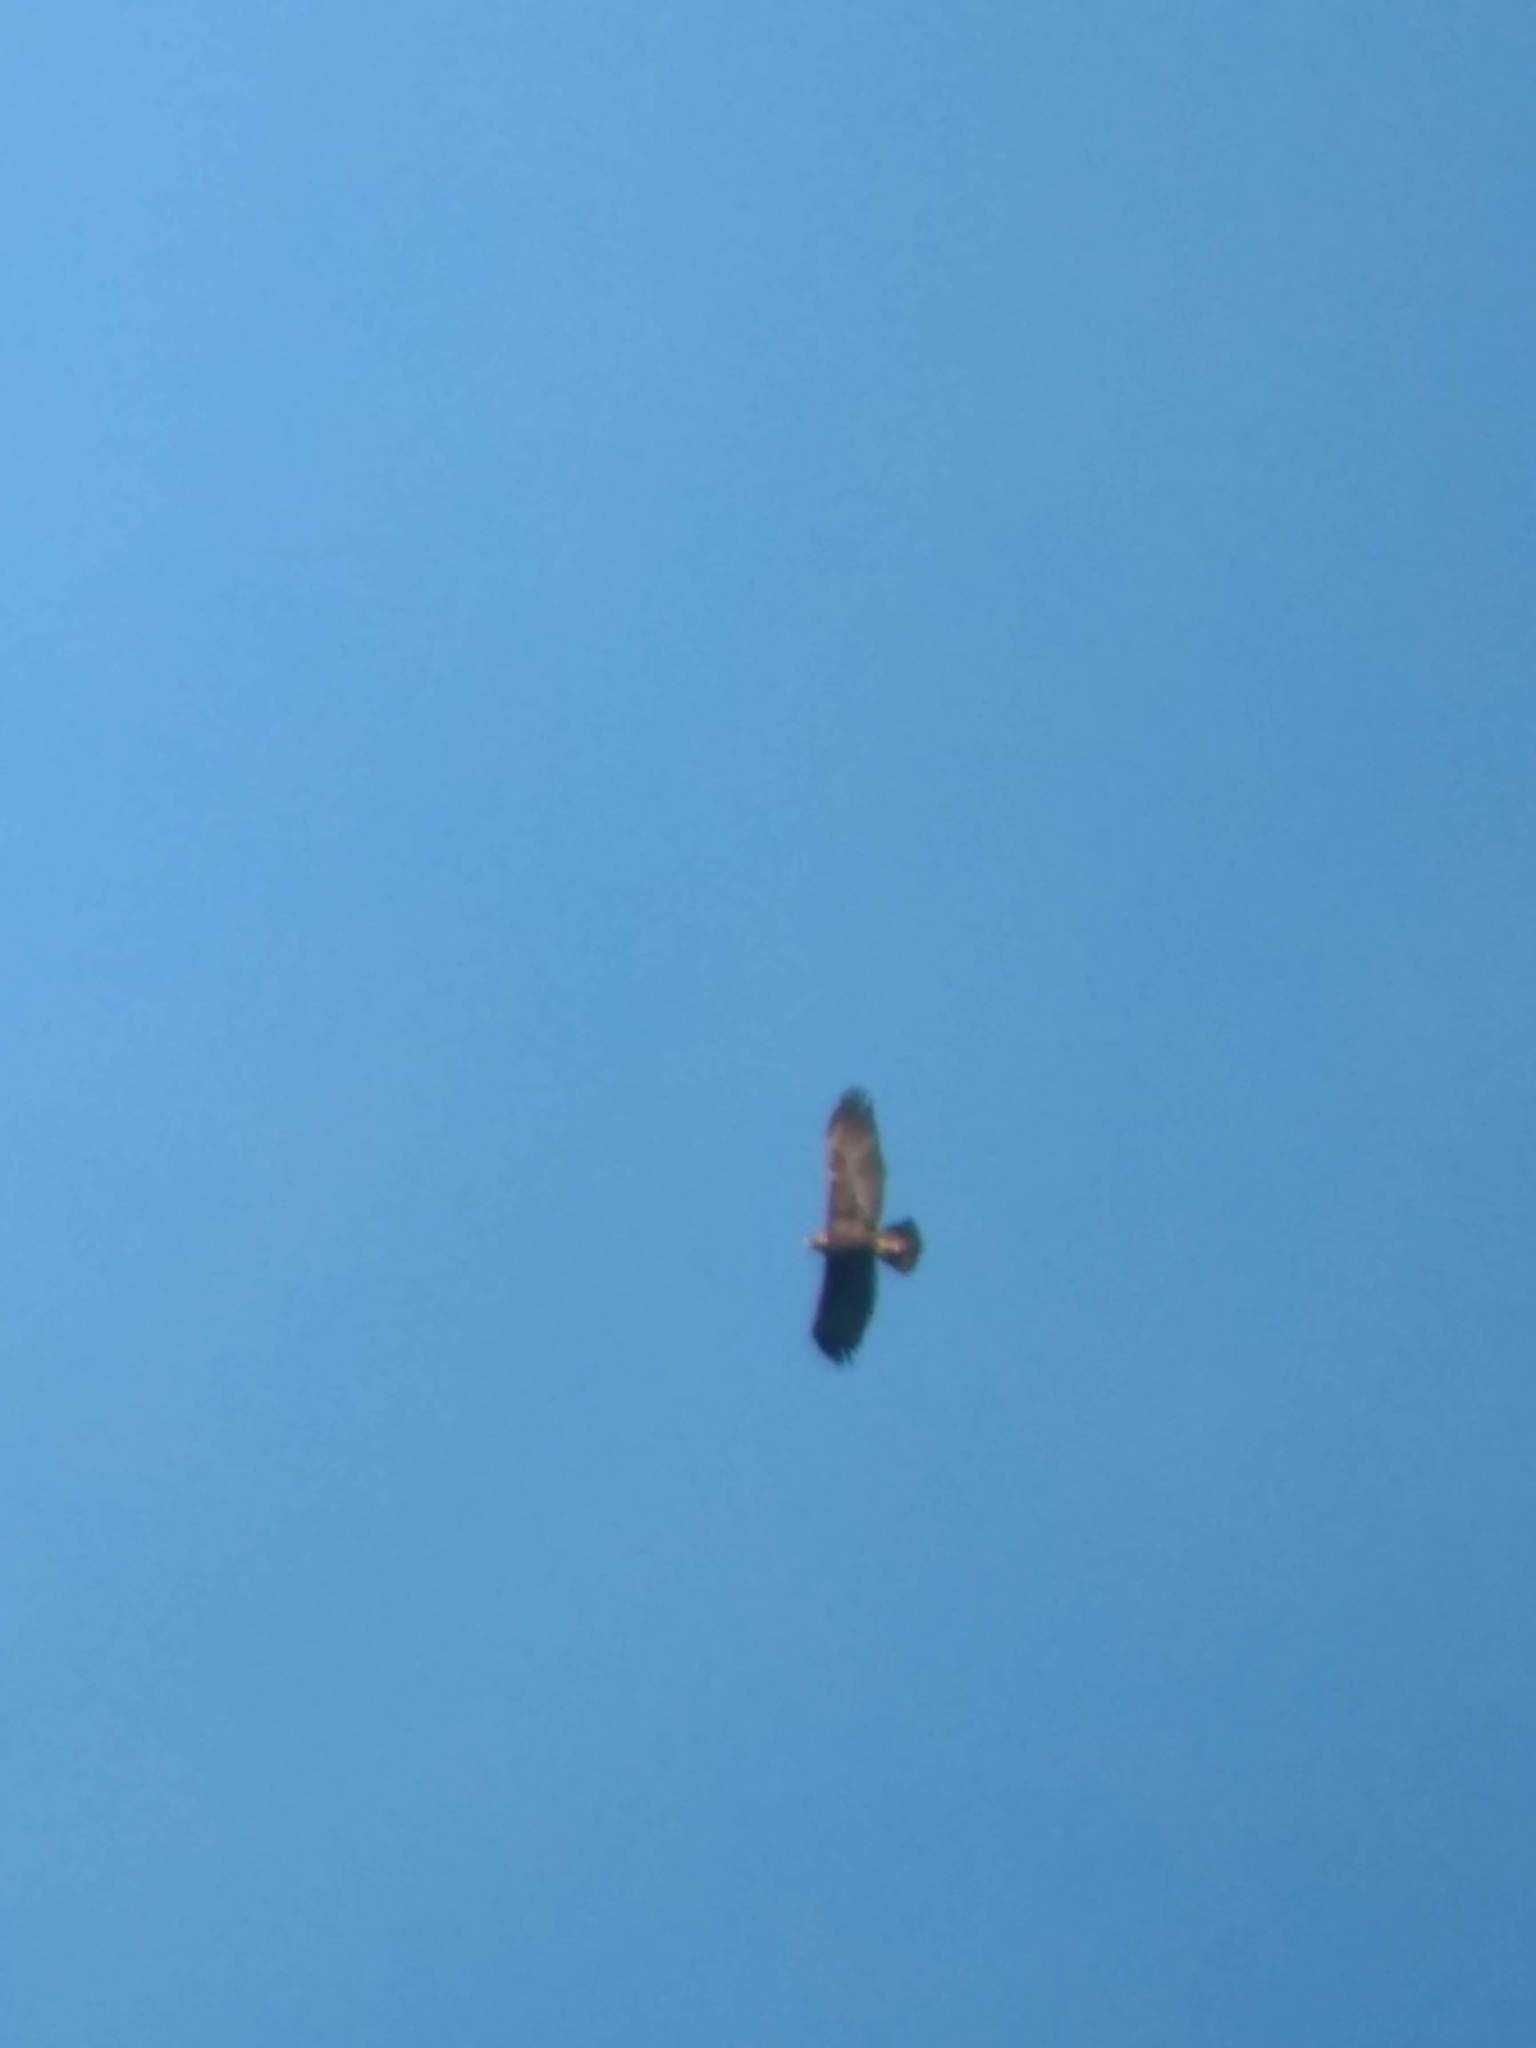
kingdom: Animalia
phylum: Chordata
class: Aves
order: Accipitriformes
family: Accipitridae
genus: Aquila
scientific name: Aquila chrysaetos
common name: Golden eagle
